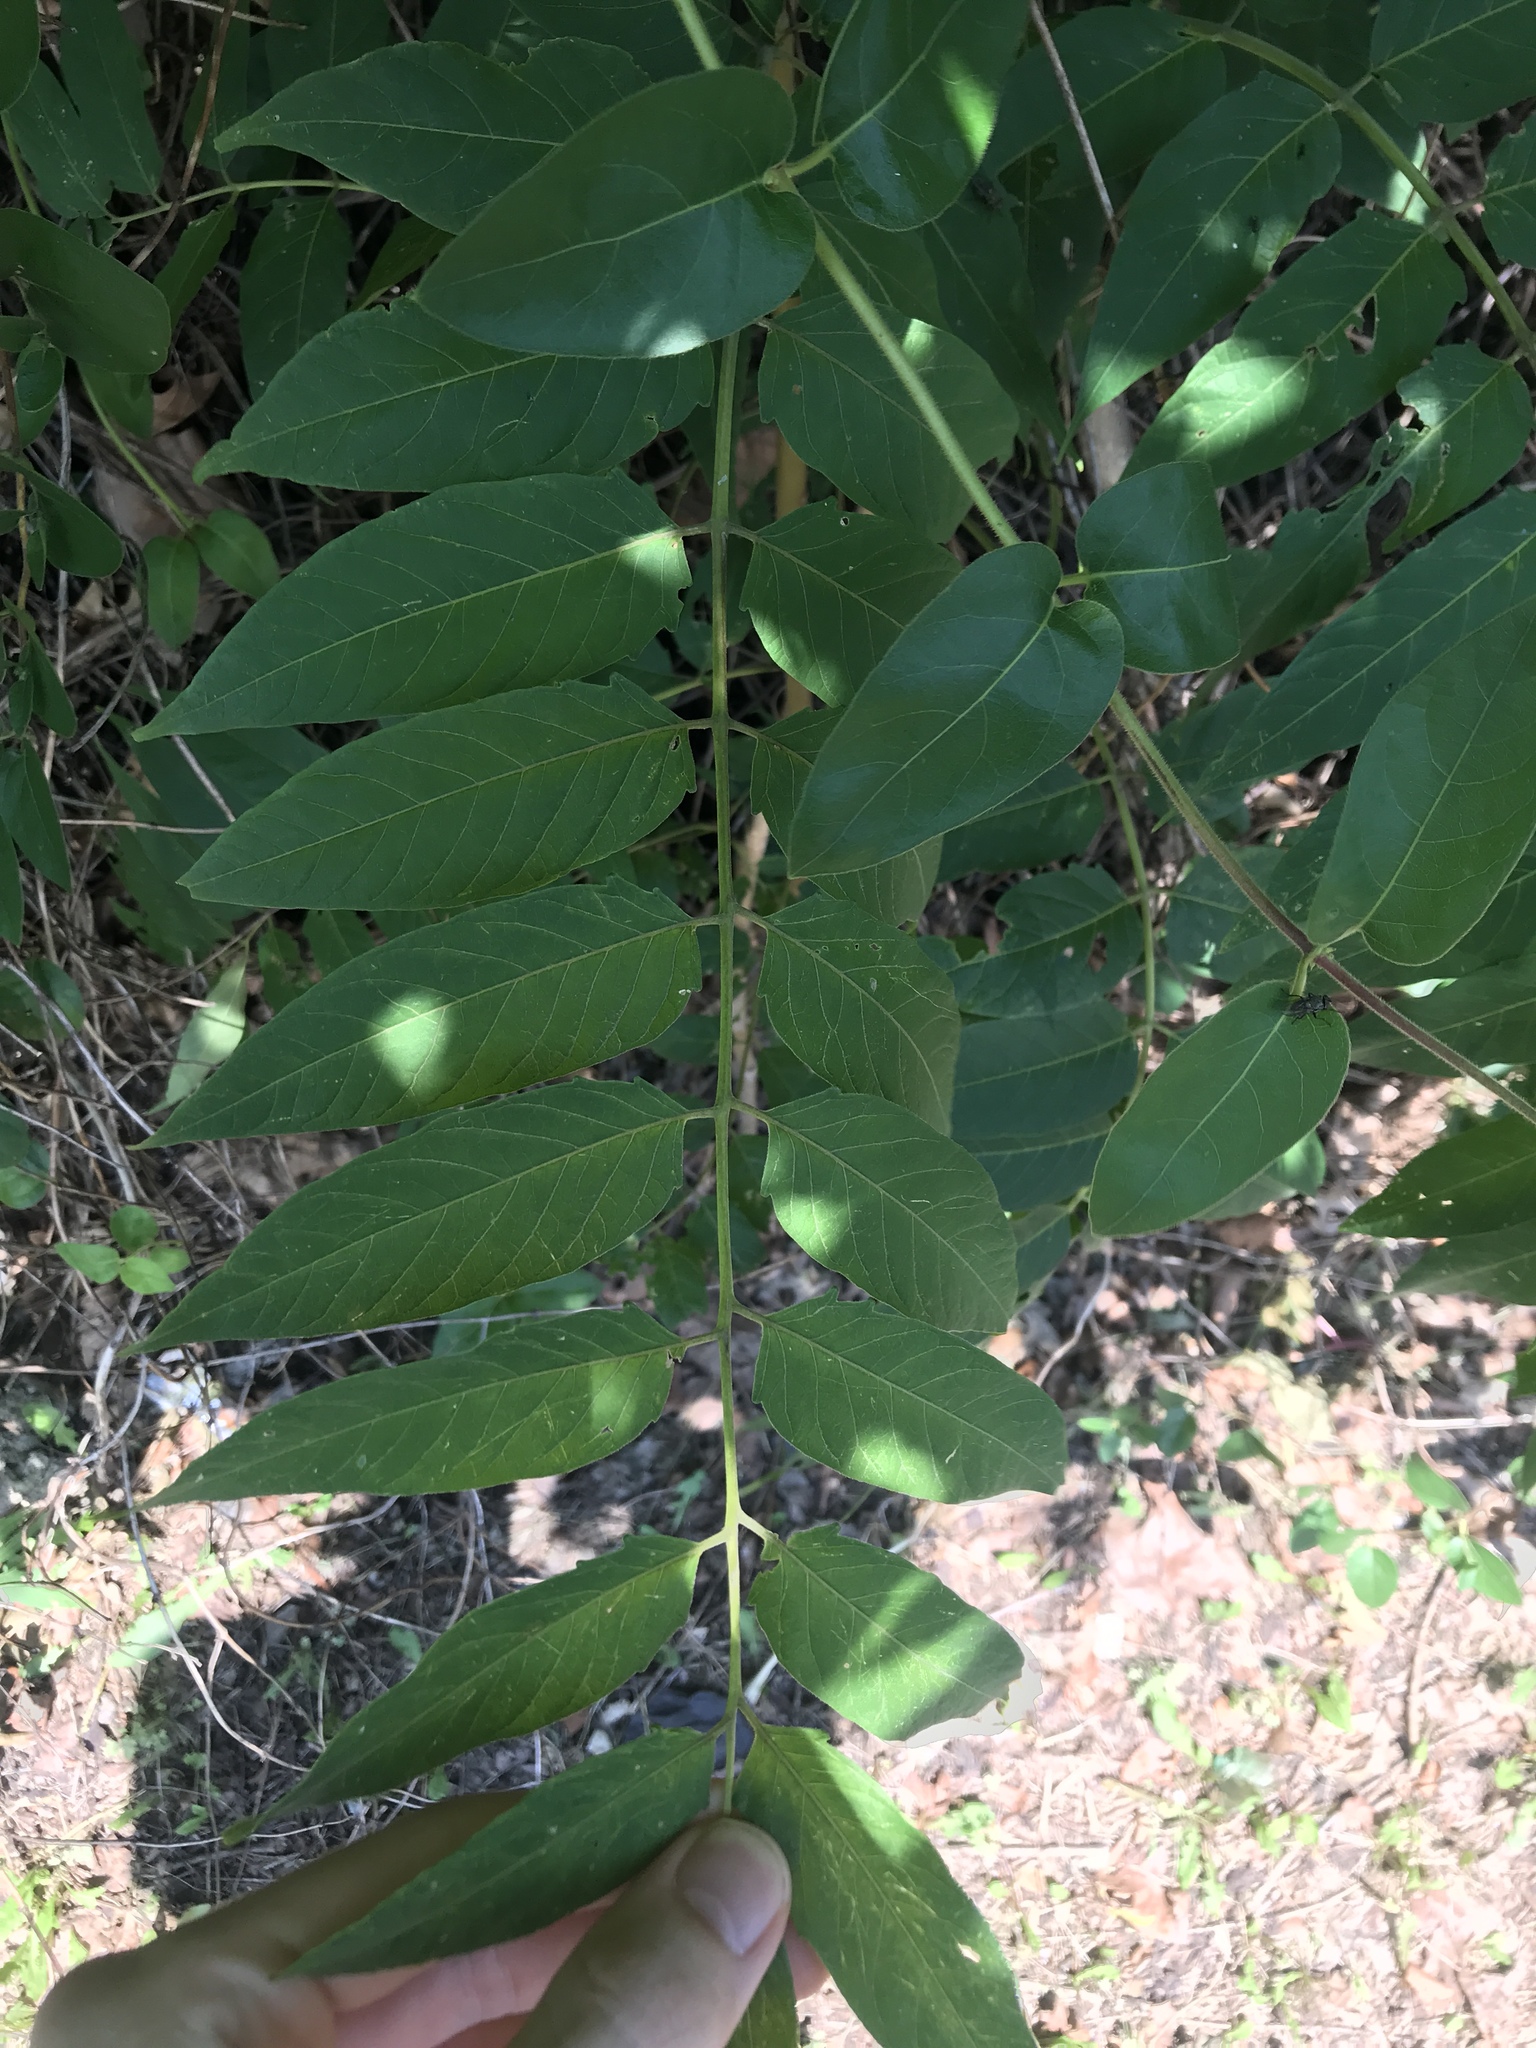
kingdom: Plantae
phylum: Tracheophyta
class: Magnoliopsida
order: Sapindales
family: Simaroubaceae
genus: Ailanthus
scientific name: Ailanthus altissima
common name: Tree-of-heaven
